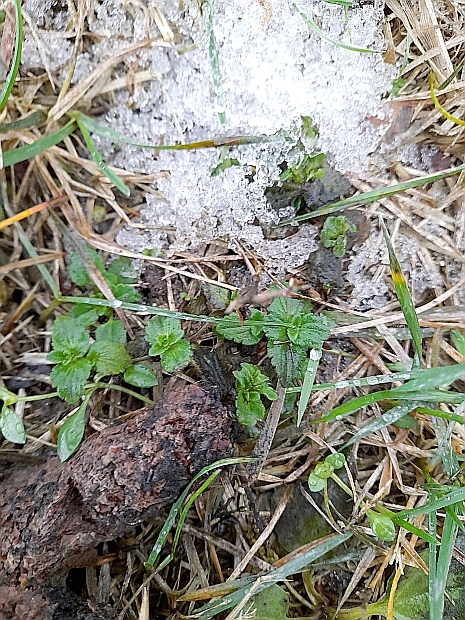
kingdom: Plantae
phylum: Tracheophyta
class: Magnoliopsida
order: Lamiales
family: Plantaginaceae
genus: Veronica
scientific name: Veronica chamaedrys
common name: Germander speedwell
